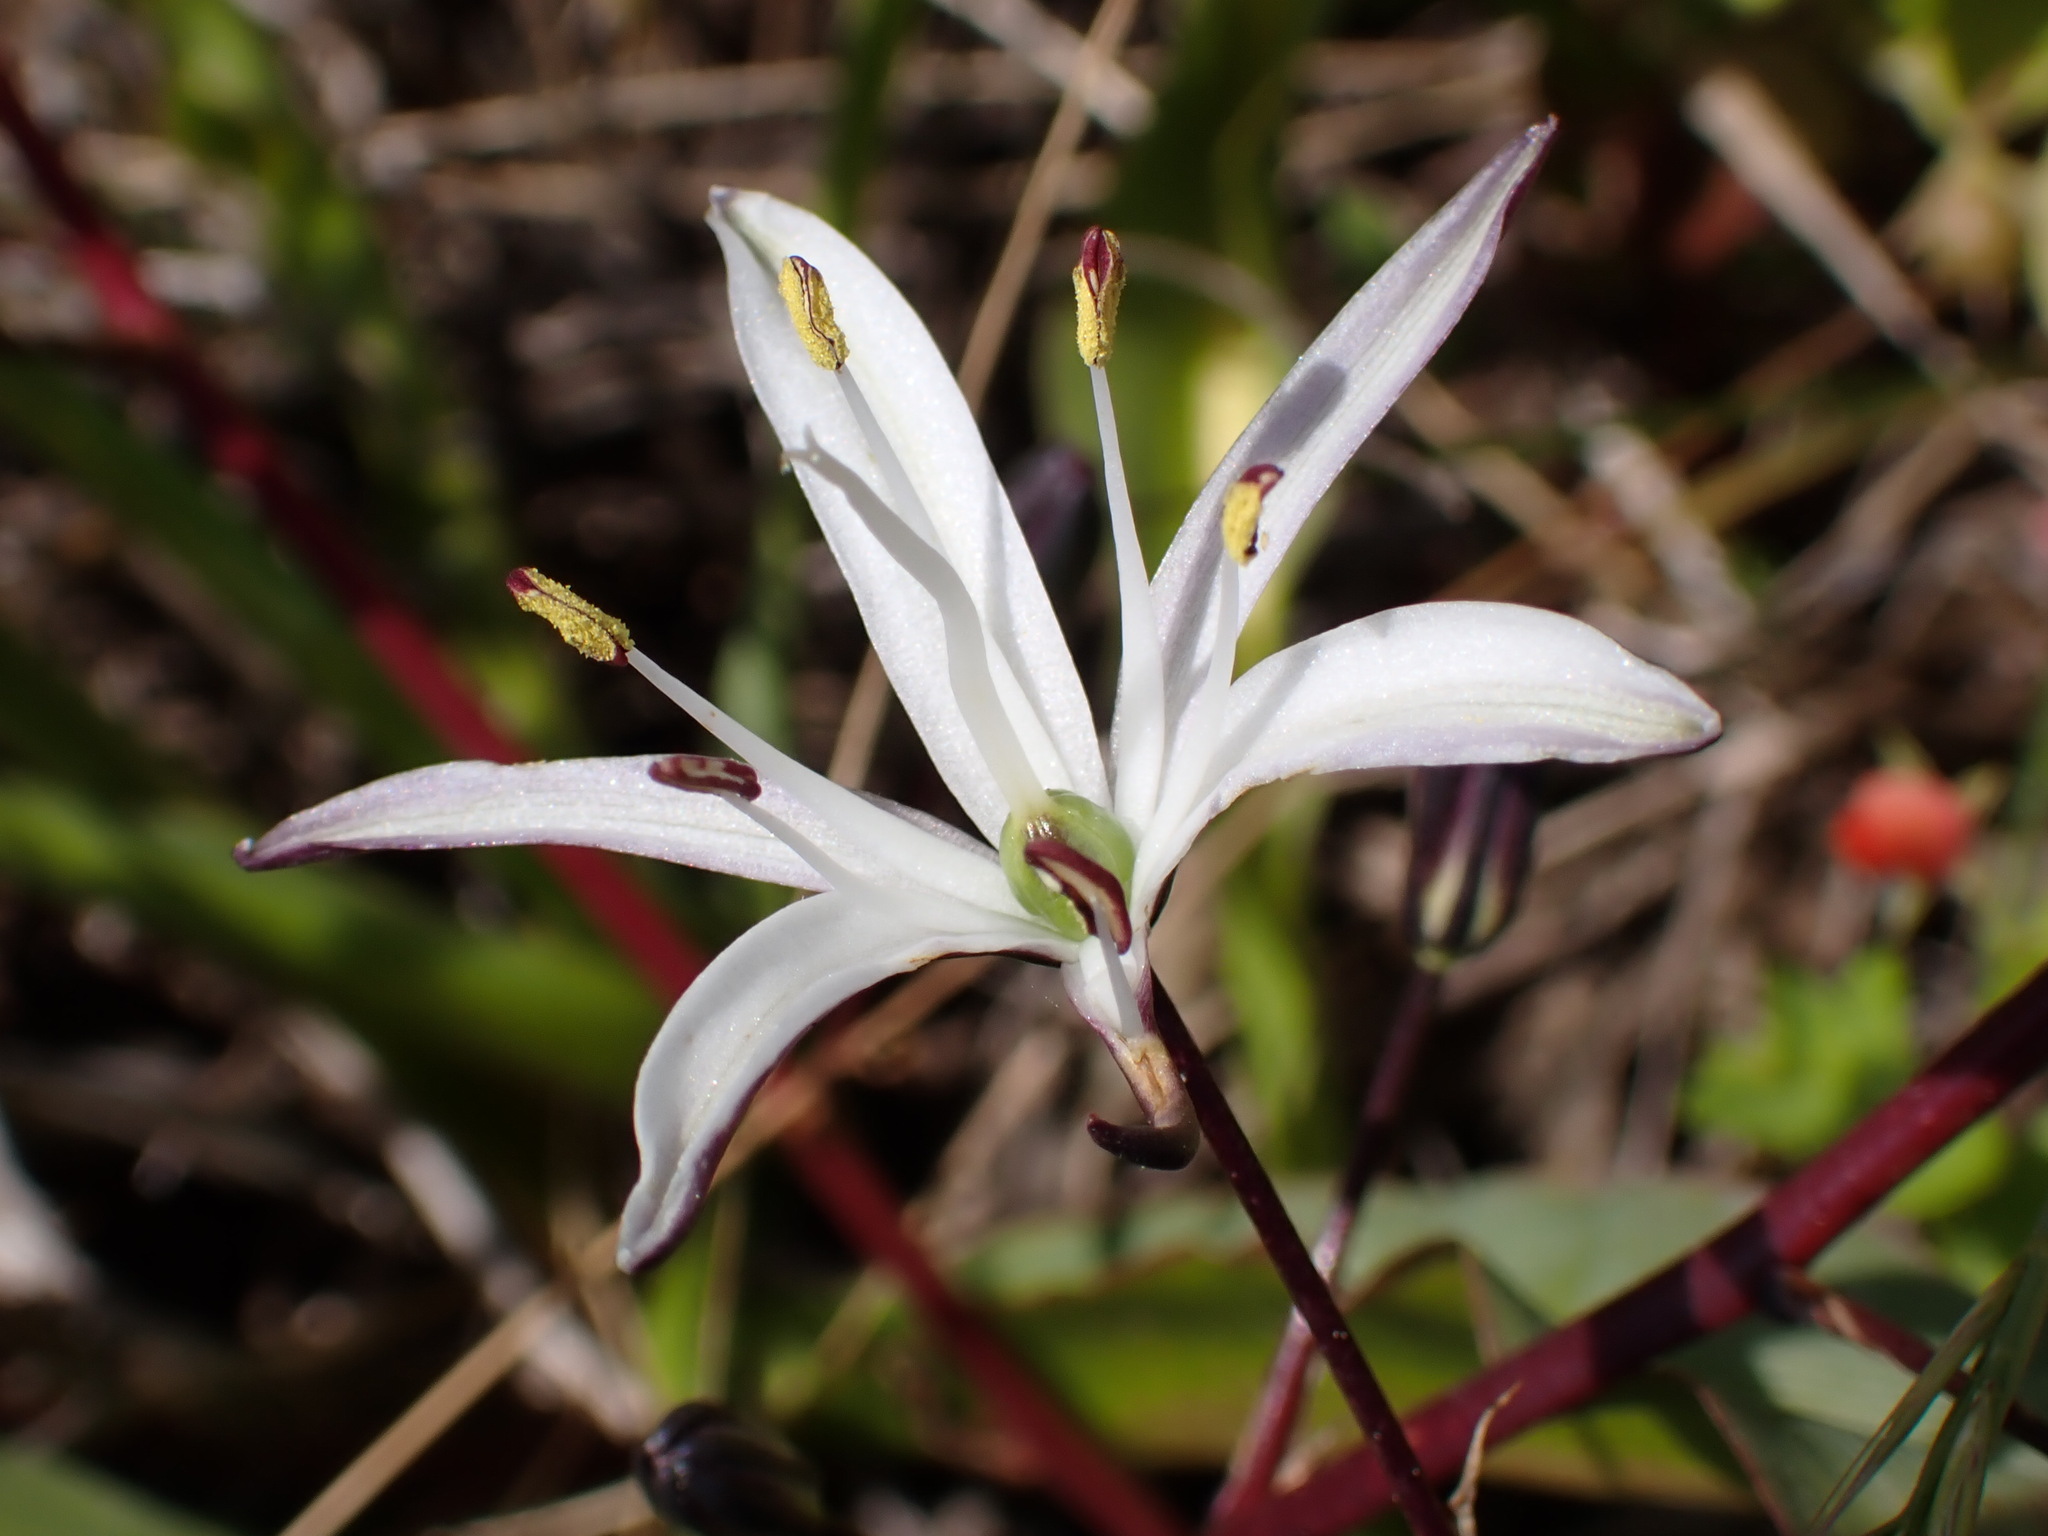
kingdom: Plantae
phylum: Tracheophyta
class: Liliopsida
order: Asparagales
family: Asparagaceae
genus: Chlorogalum
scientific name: Chlorogalum pomeridianum
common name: Amole
